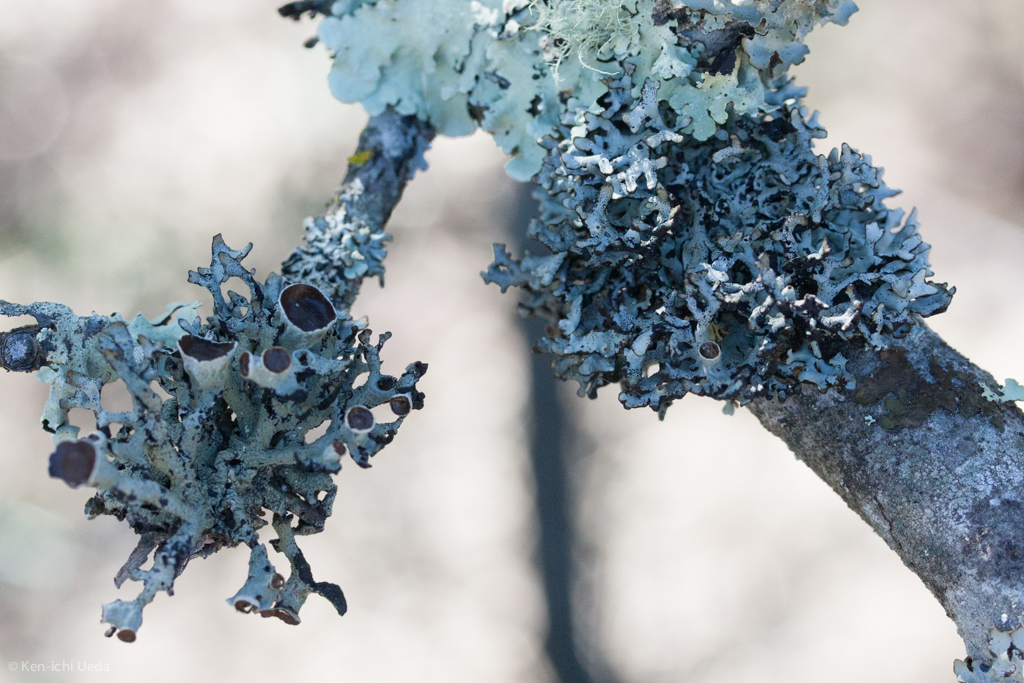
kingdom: Fungi
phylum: Ascomycota
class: Lecanoromycetes
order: Lecanorales
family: Parmeliaceae
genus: Hypogymnia
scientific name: Hypogymnia imshaugii
